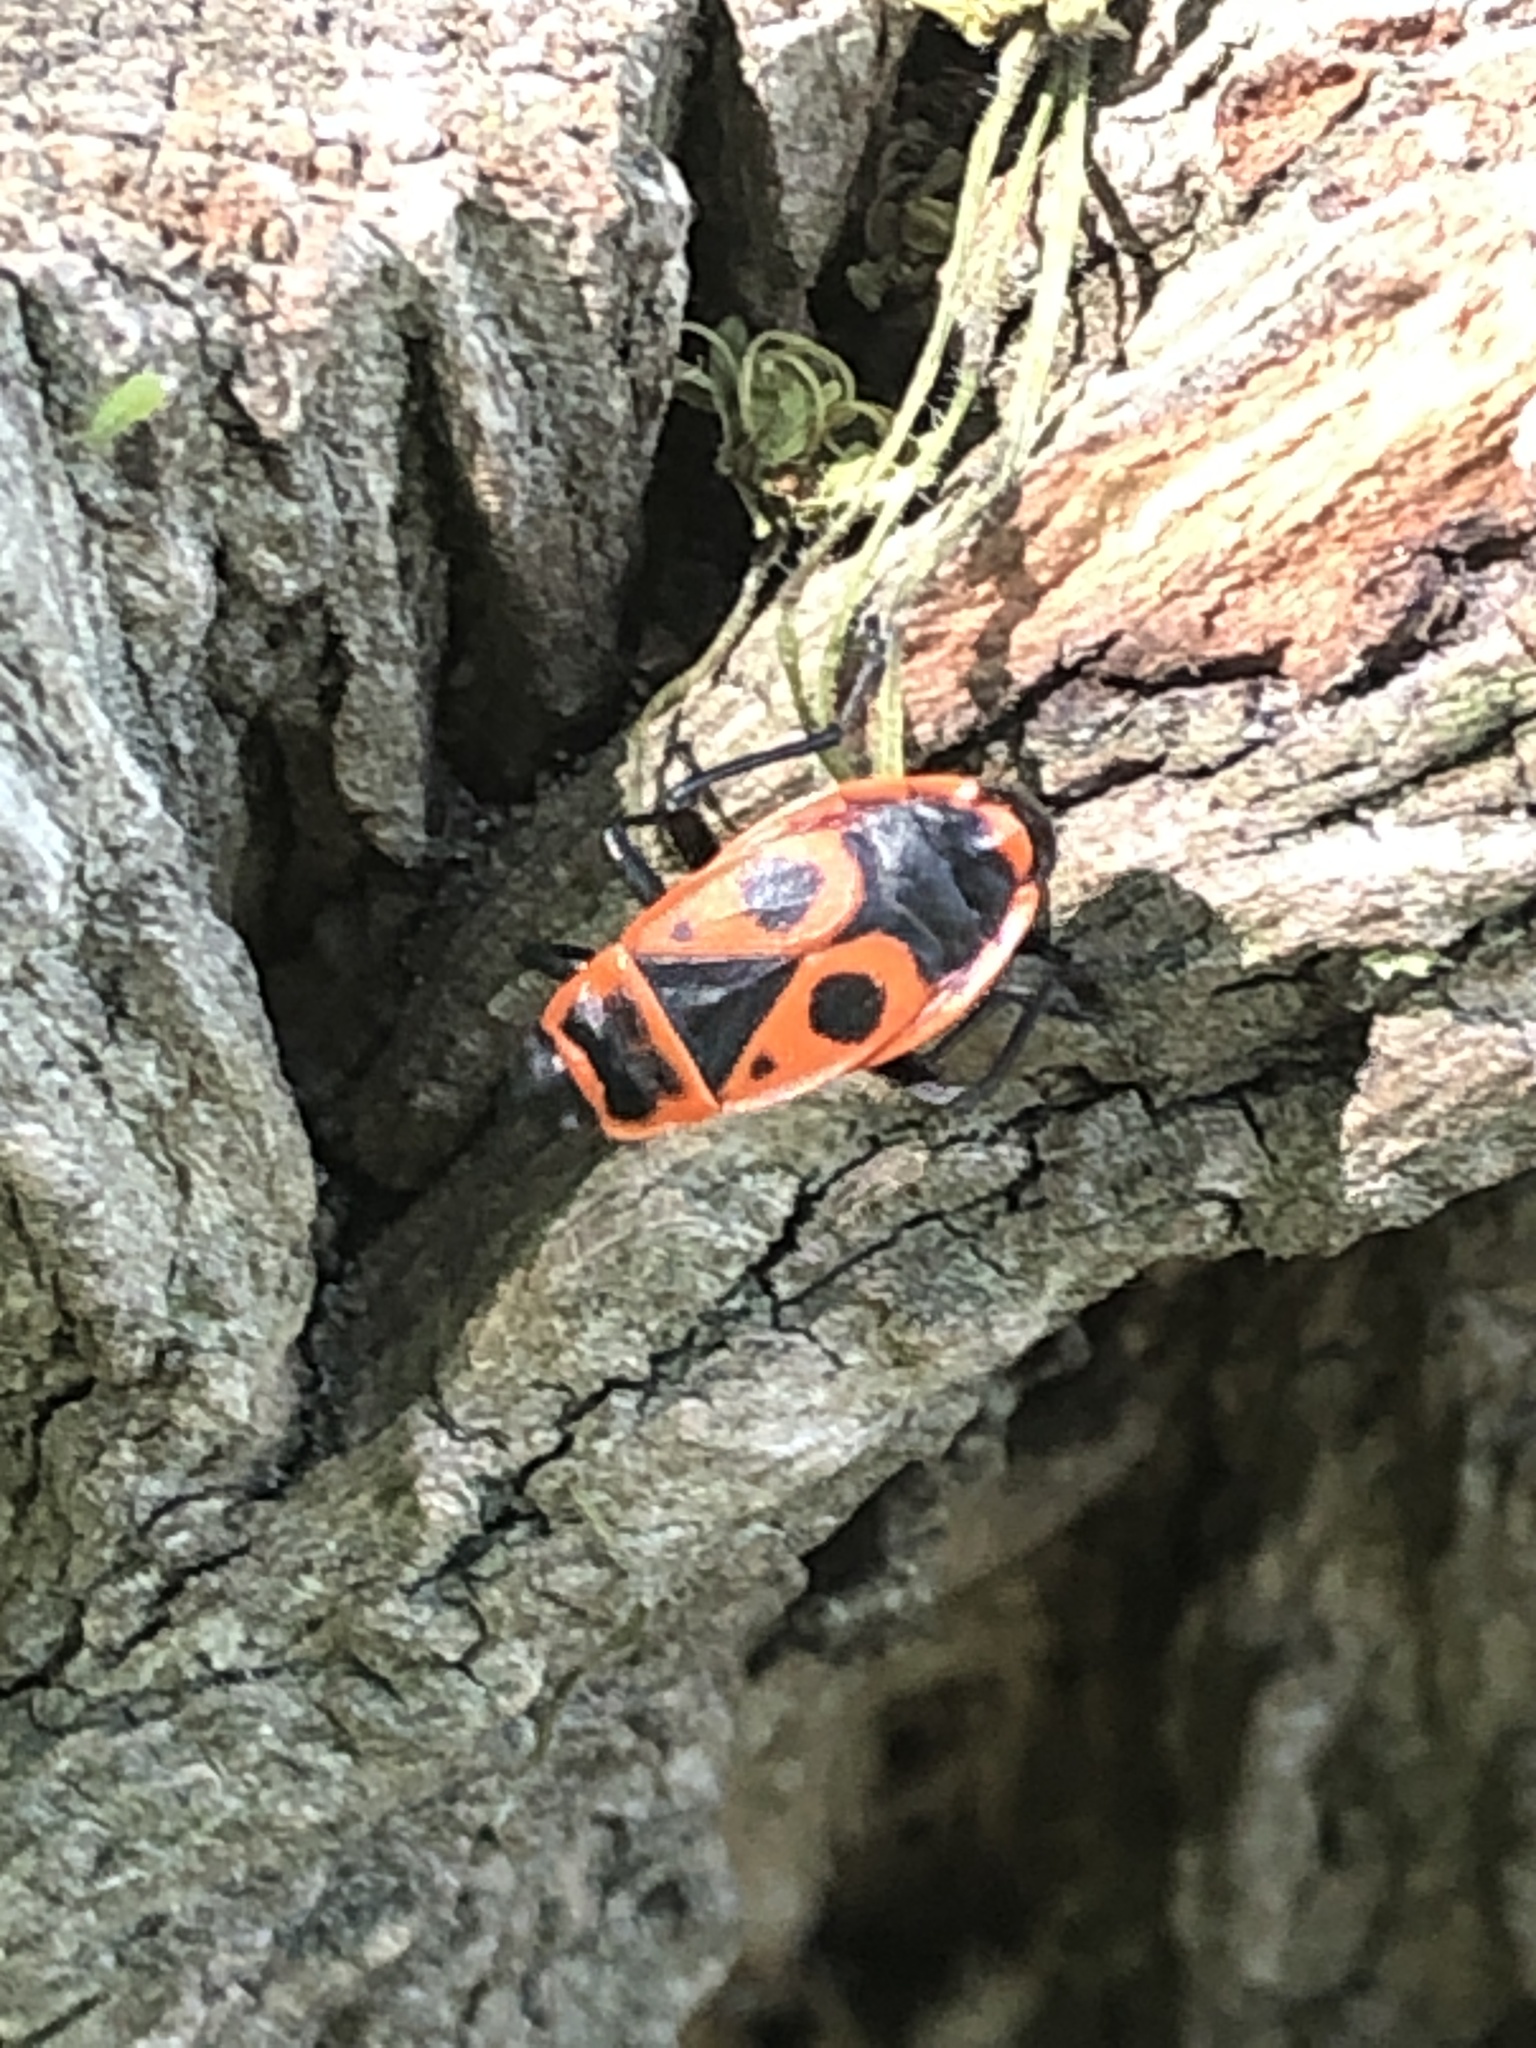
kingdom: Animalia
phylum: Arthropoda
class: Insecta
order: Hemiptera
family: Pyrrhocoridae
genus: Pyrrhocoris
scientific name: Pyrrhocoris apterus
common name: Firebug
